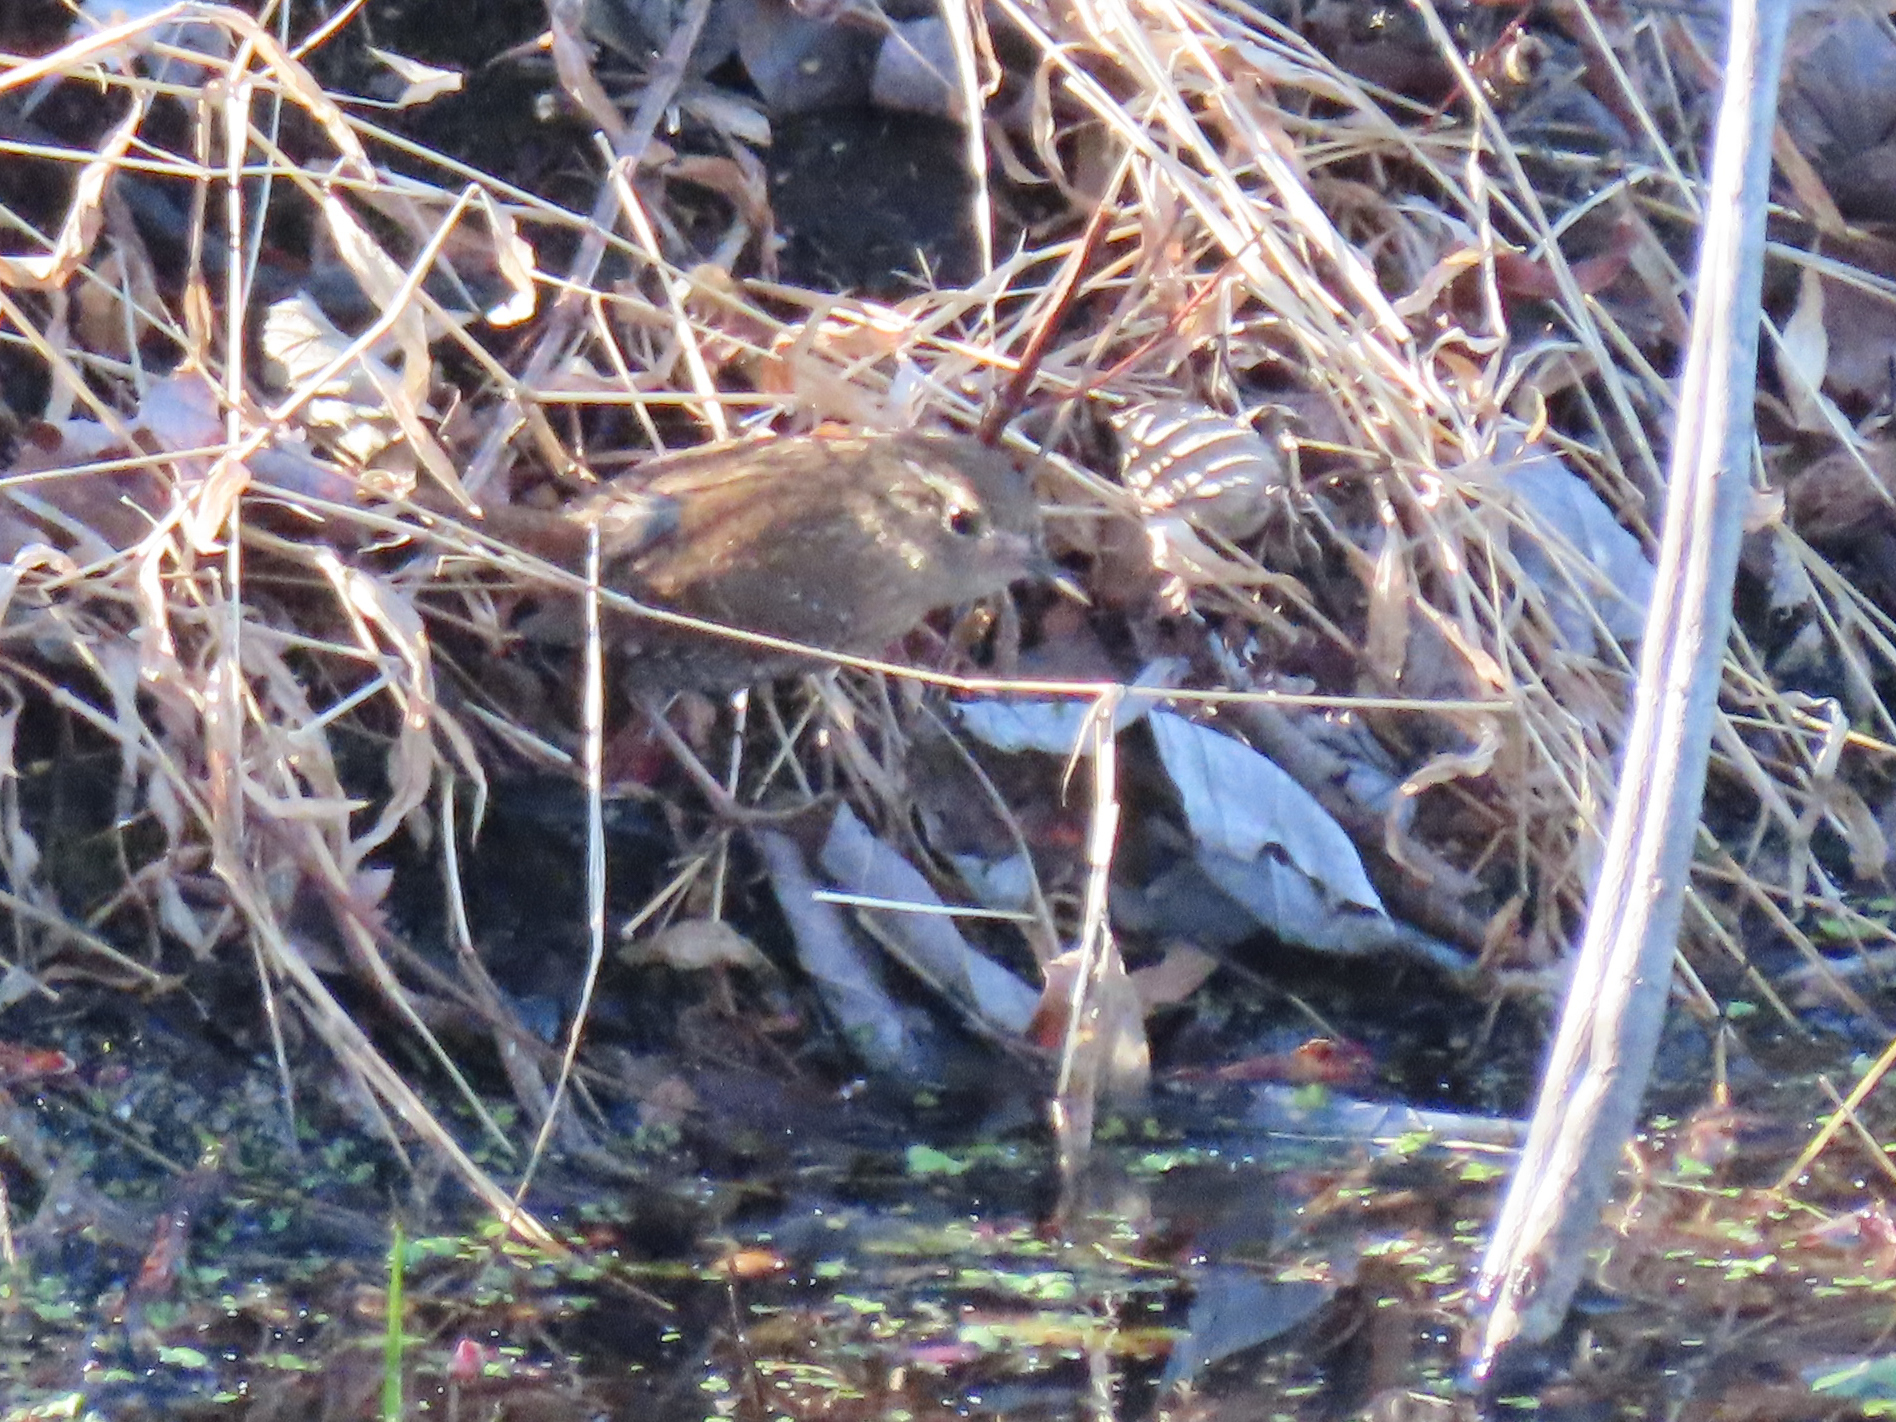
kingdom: Animalia
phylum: Chordata
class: Aves
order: Passeriformes
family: Troglodytidae
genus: Troglodytes
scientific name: Troglodytes hiemalis
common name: Winter wren
